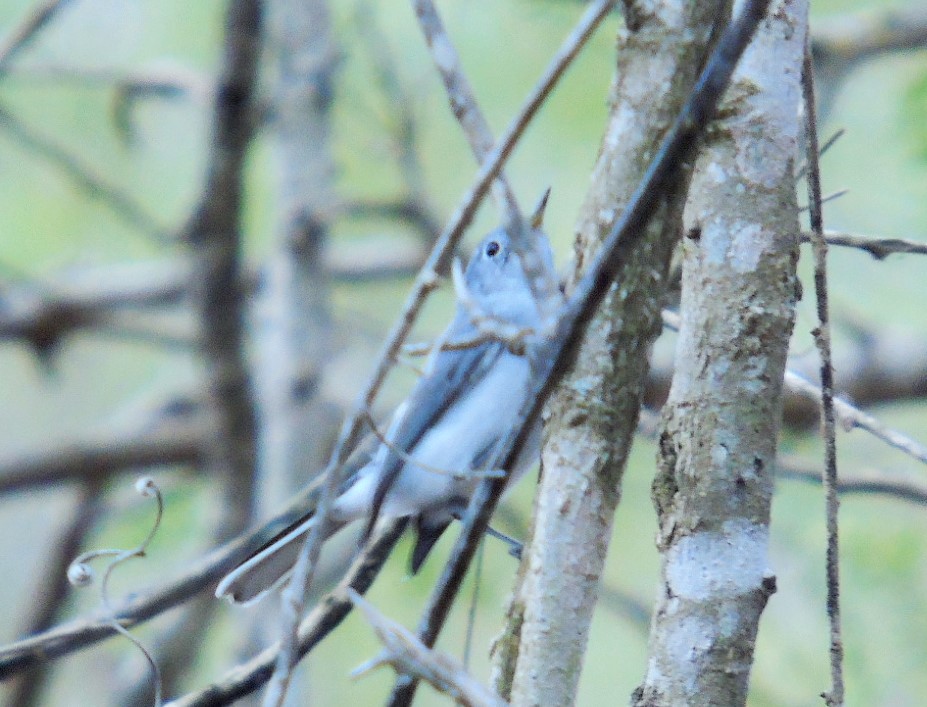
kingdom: Animalia
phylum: Chordata
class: Aves
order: Passeriformes
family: Polioptilidae
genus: Polioptila
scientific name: Polioptila caerulea
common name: Blue-gray gnatcatcher
